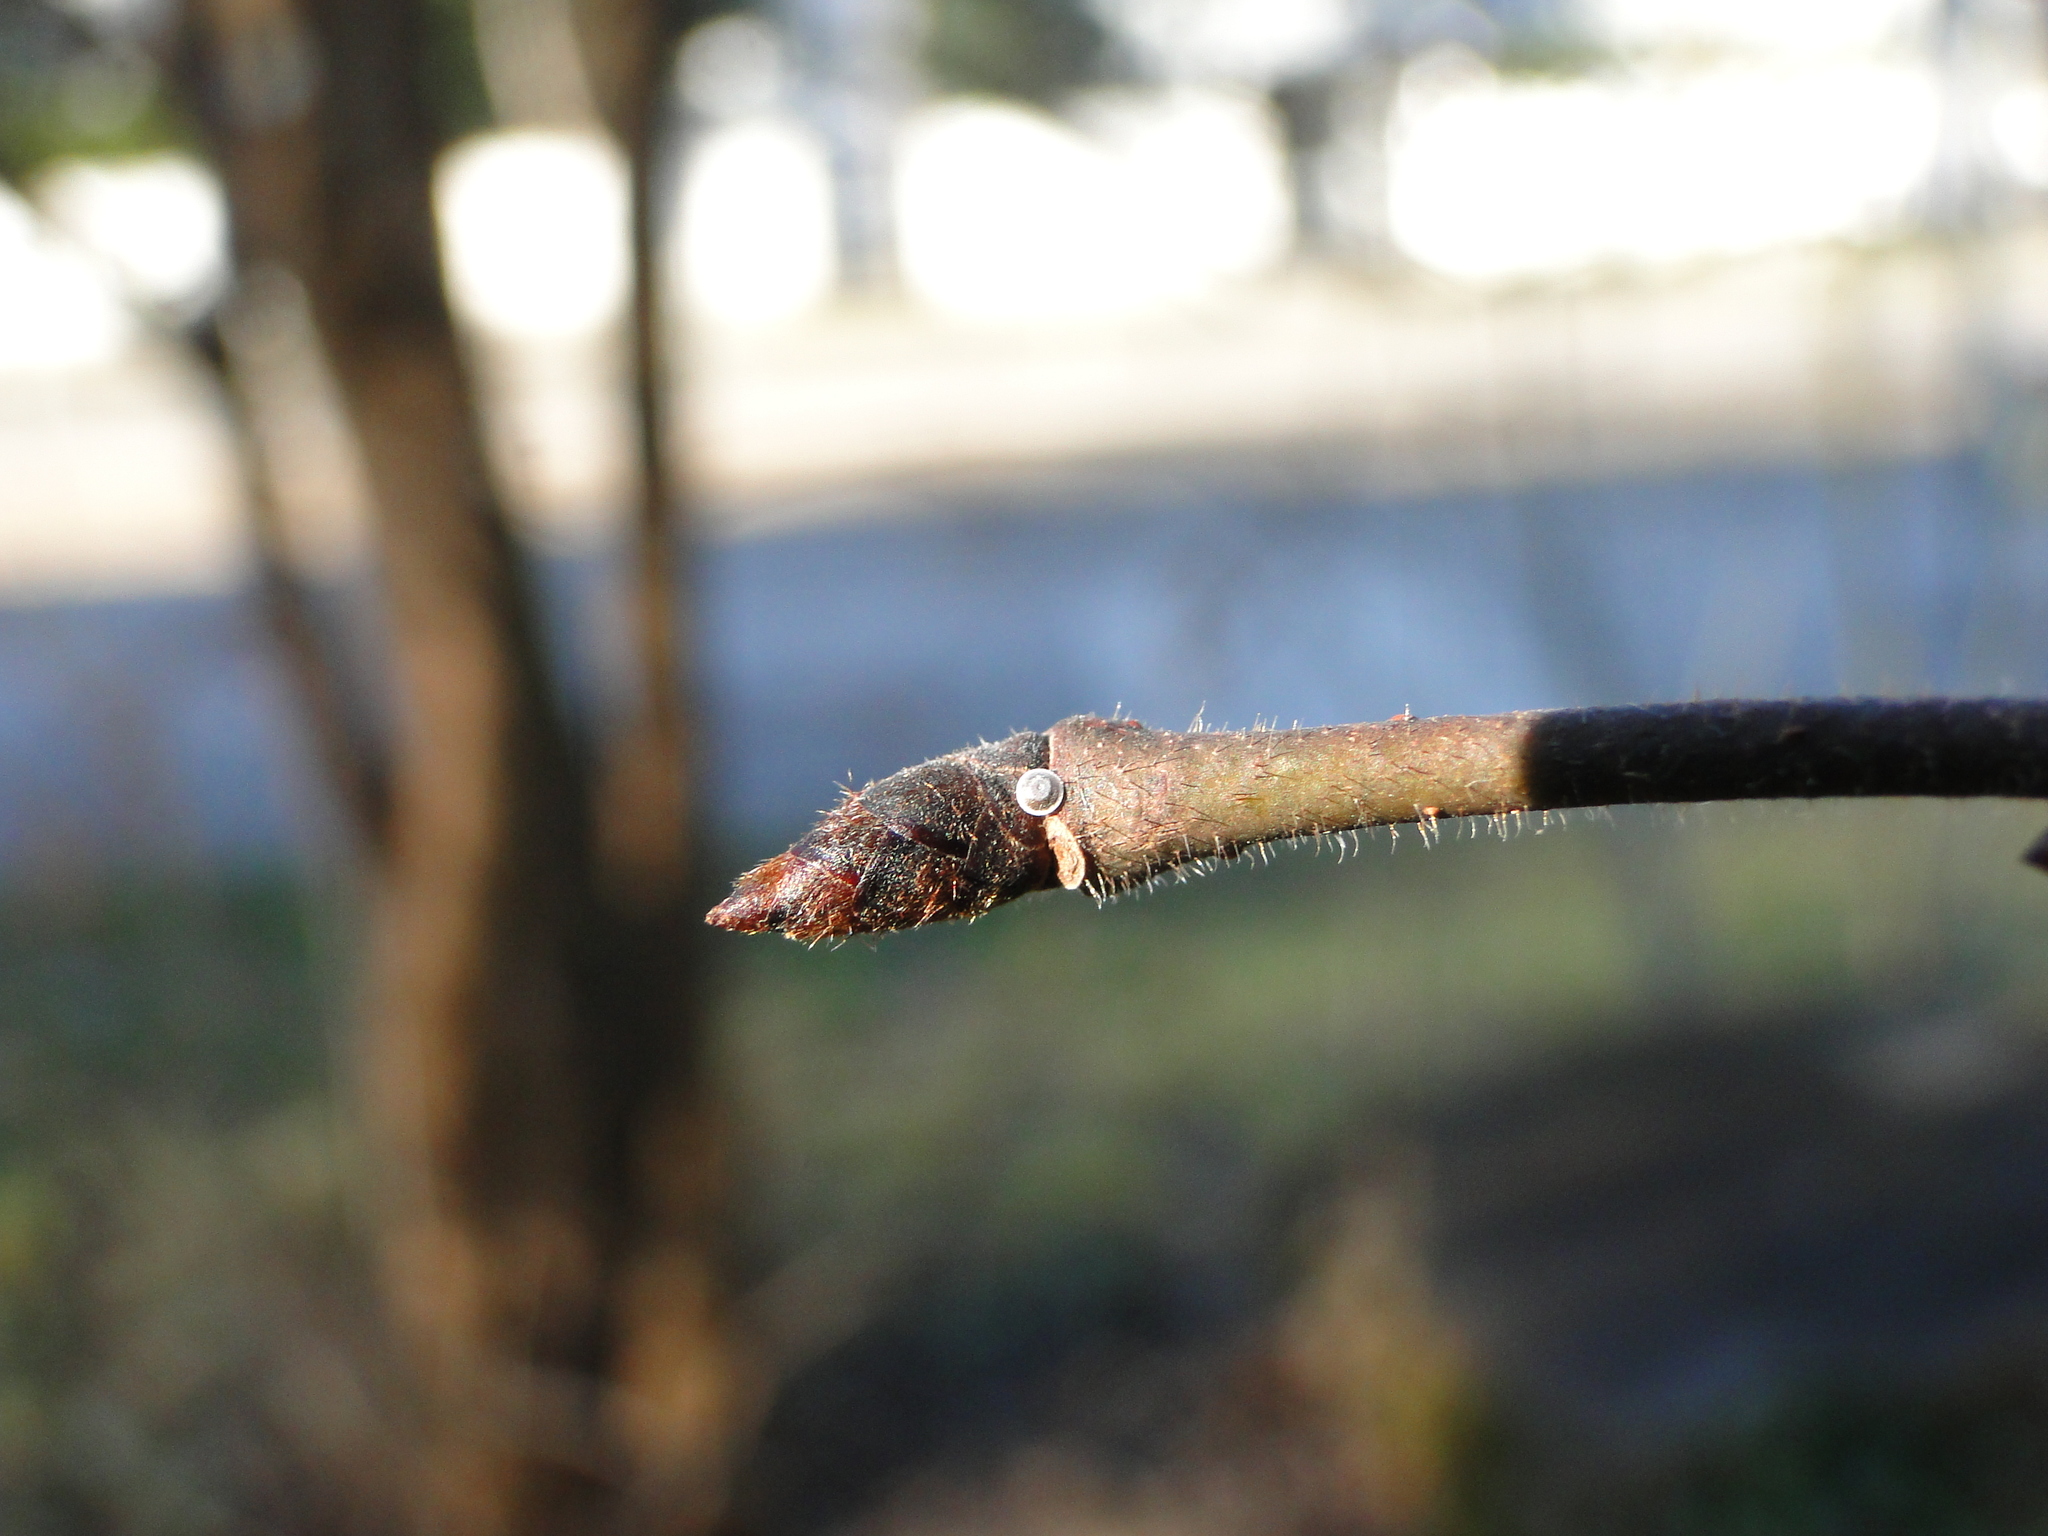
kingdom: Animalia
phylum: Arthropoda
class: Insecta
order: Lepidoptera
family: Lycaenidae
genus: Satyrium
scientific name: Satyrium w-album
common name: White-letter hairstreak
